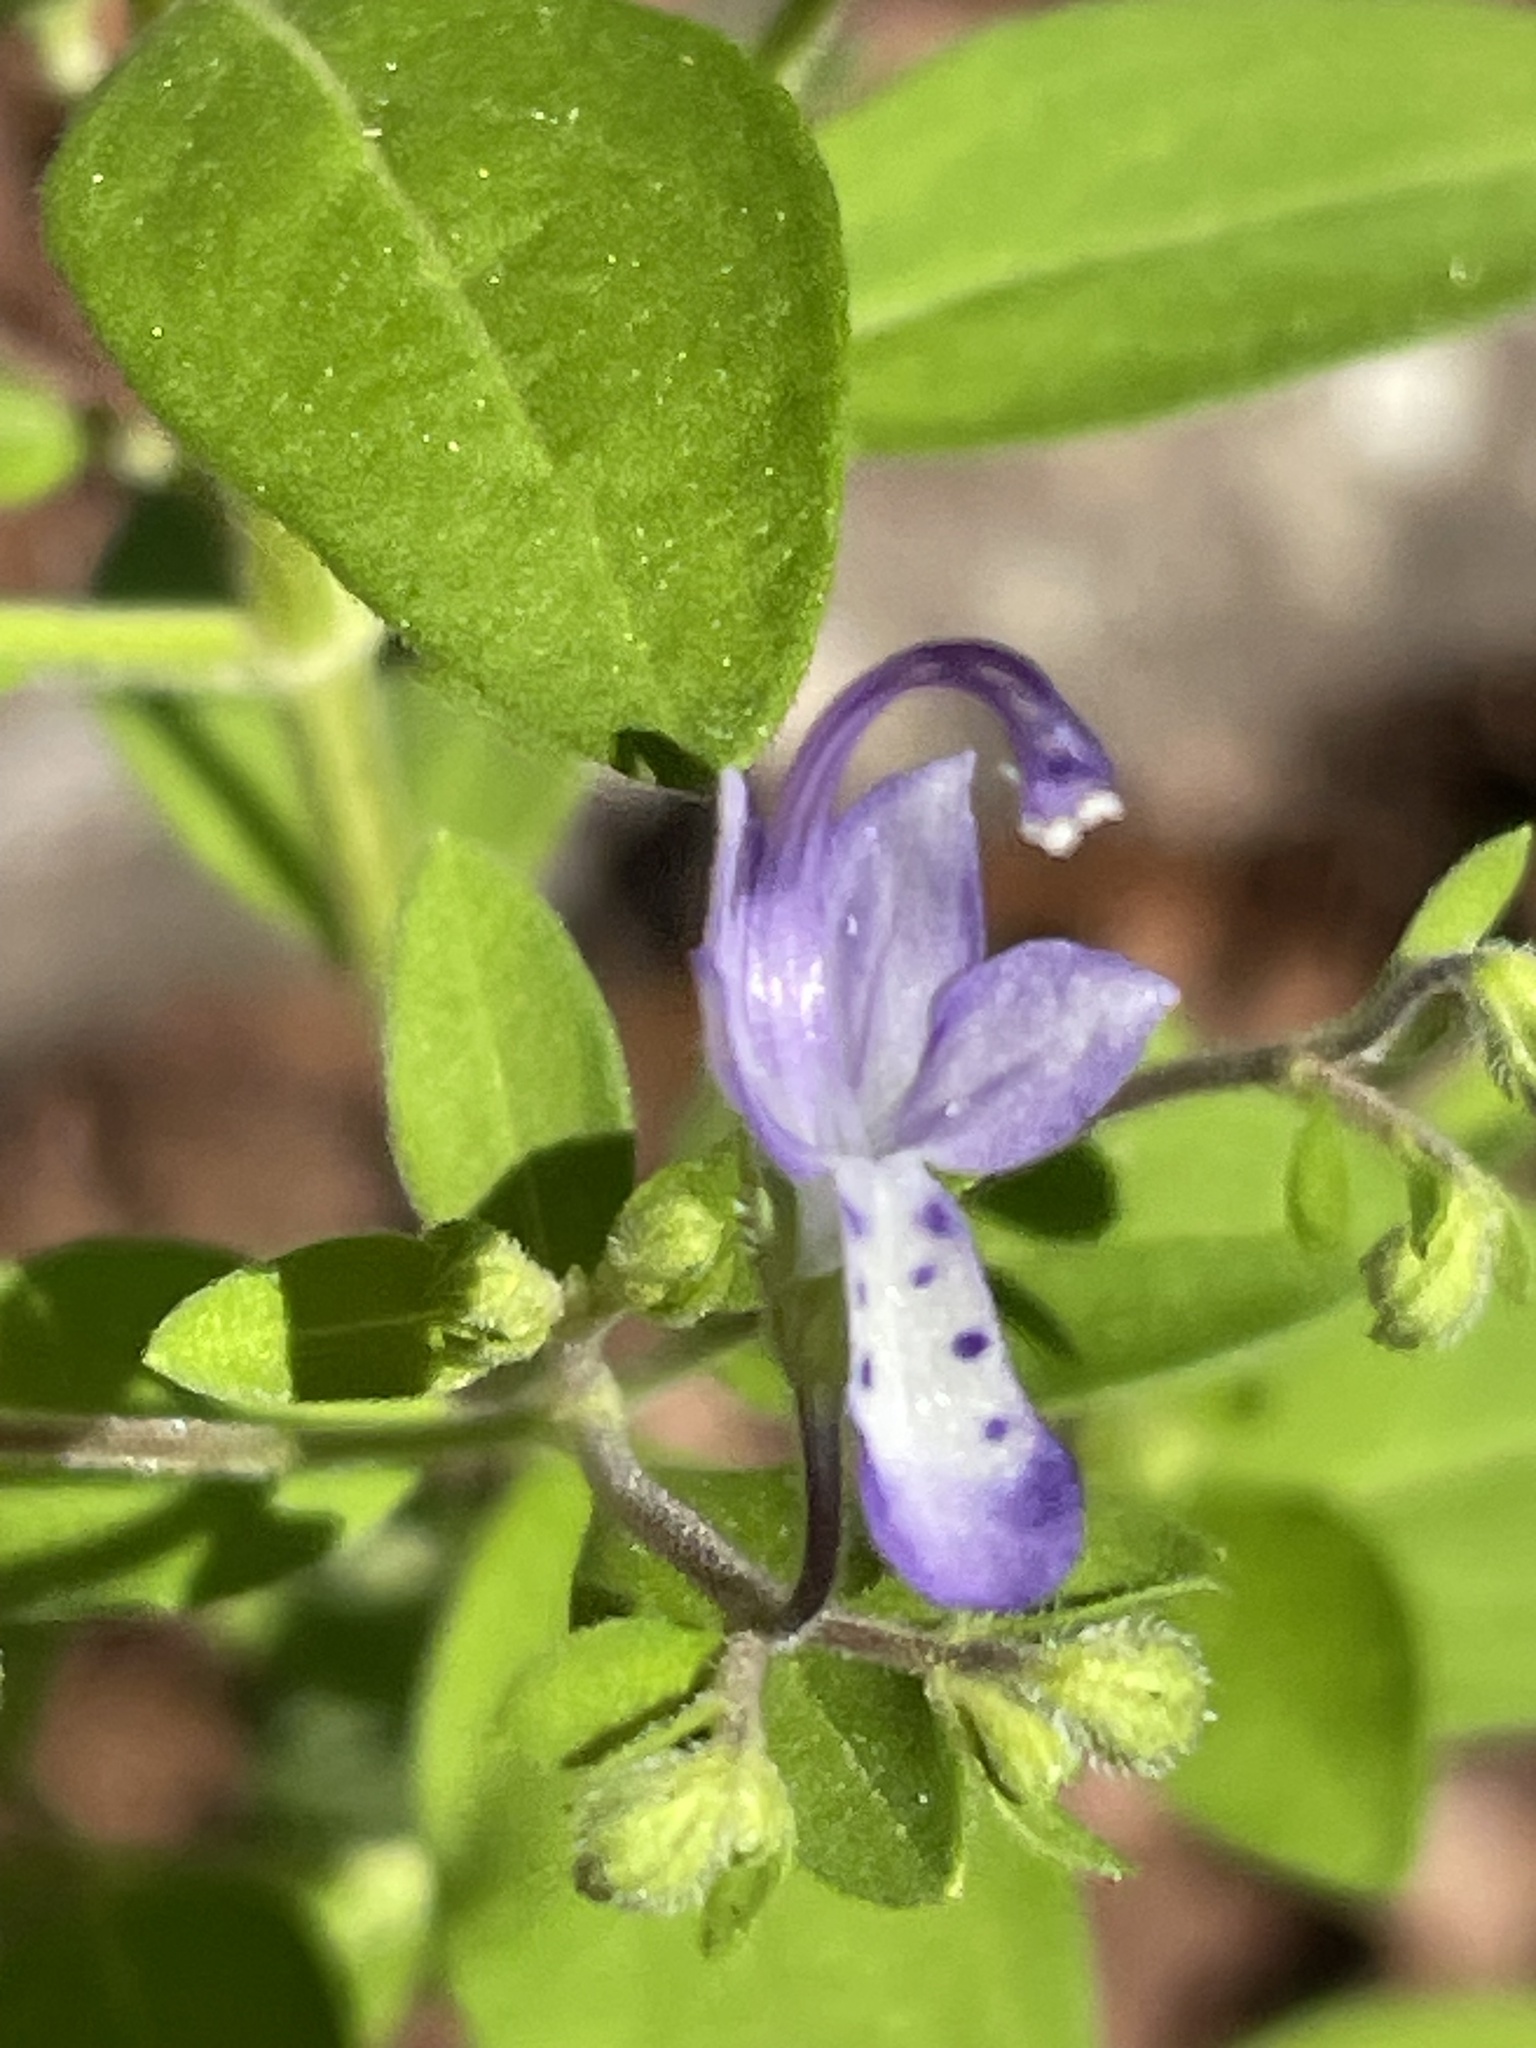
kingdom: Plantae
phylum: Tracheophyta
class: Magnoliopsida
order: Lamiales
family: Lamiaceae
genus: Trichostema
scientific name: Trichostema dichotomum
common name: Bastard pennyroyal
